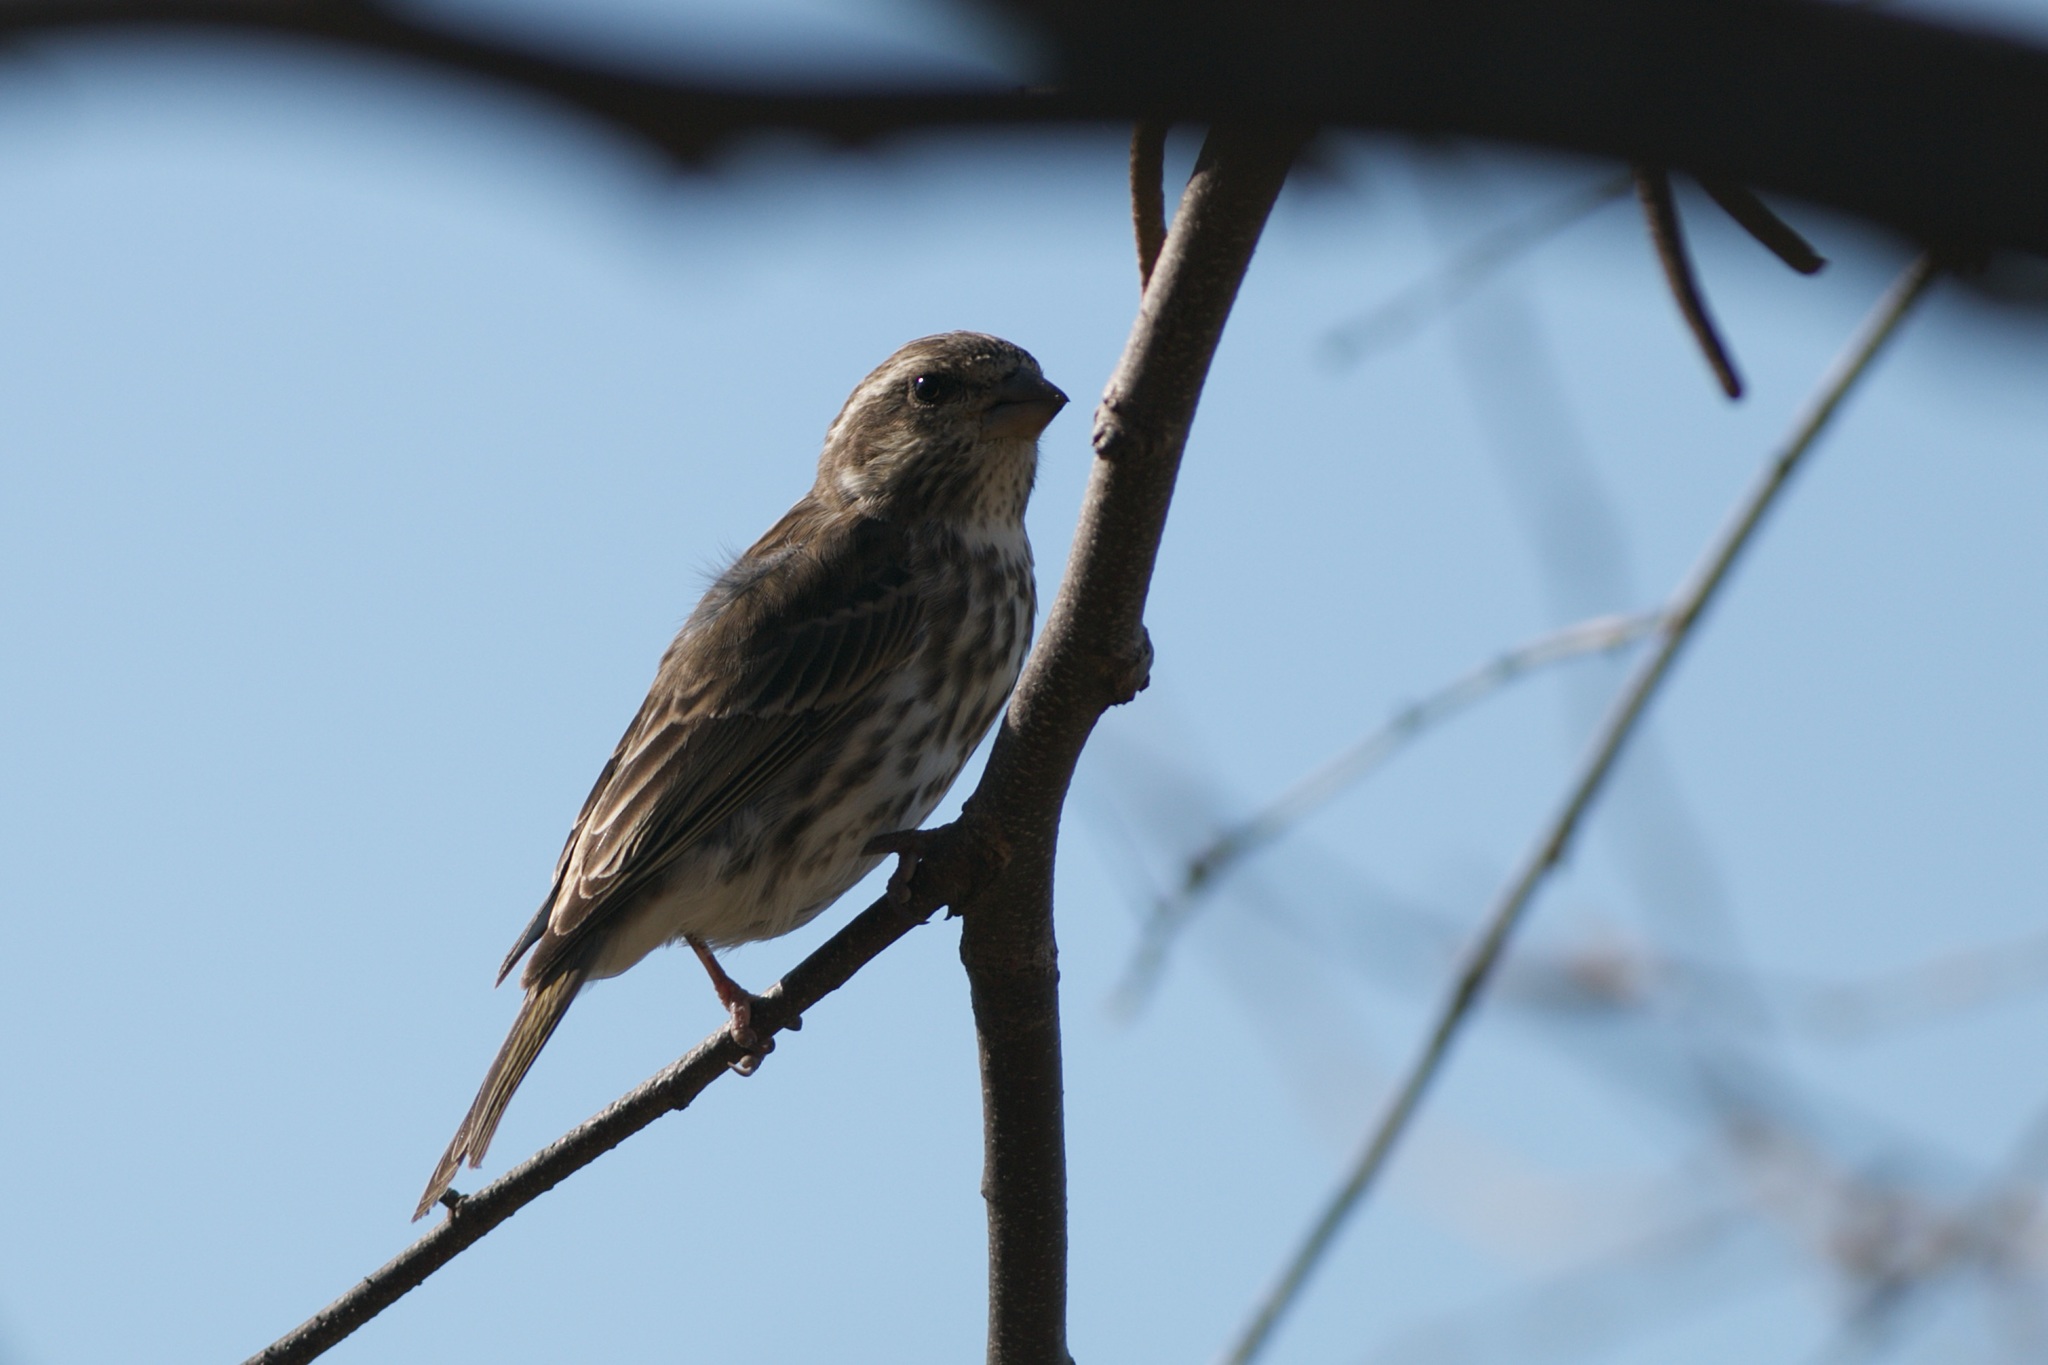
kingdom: Animalia
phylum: Chordata
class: Aves
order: Passeriformes
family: Fringillidae
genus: Haemorhous
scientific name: Haemorhous purpureus
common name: Purple finch
